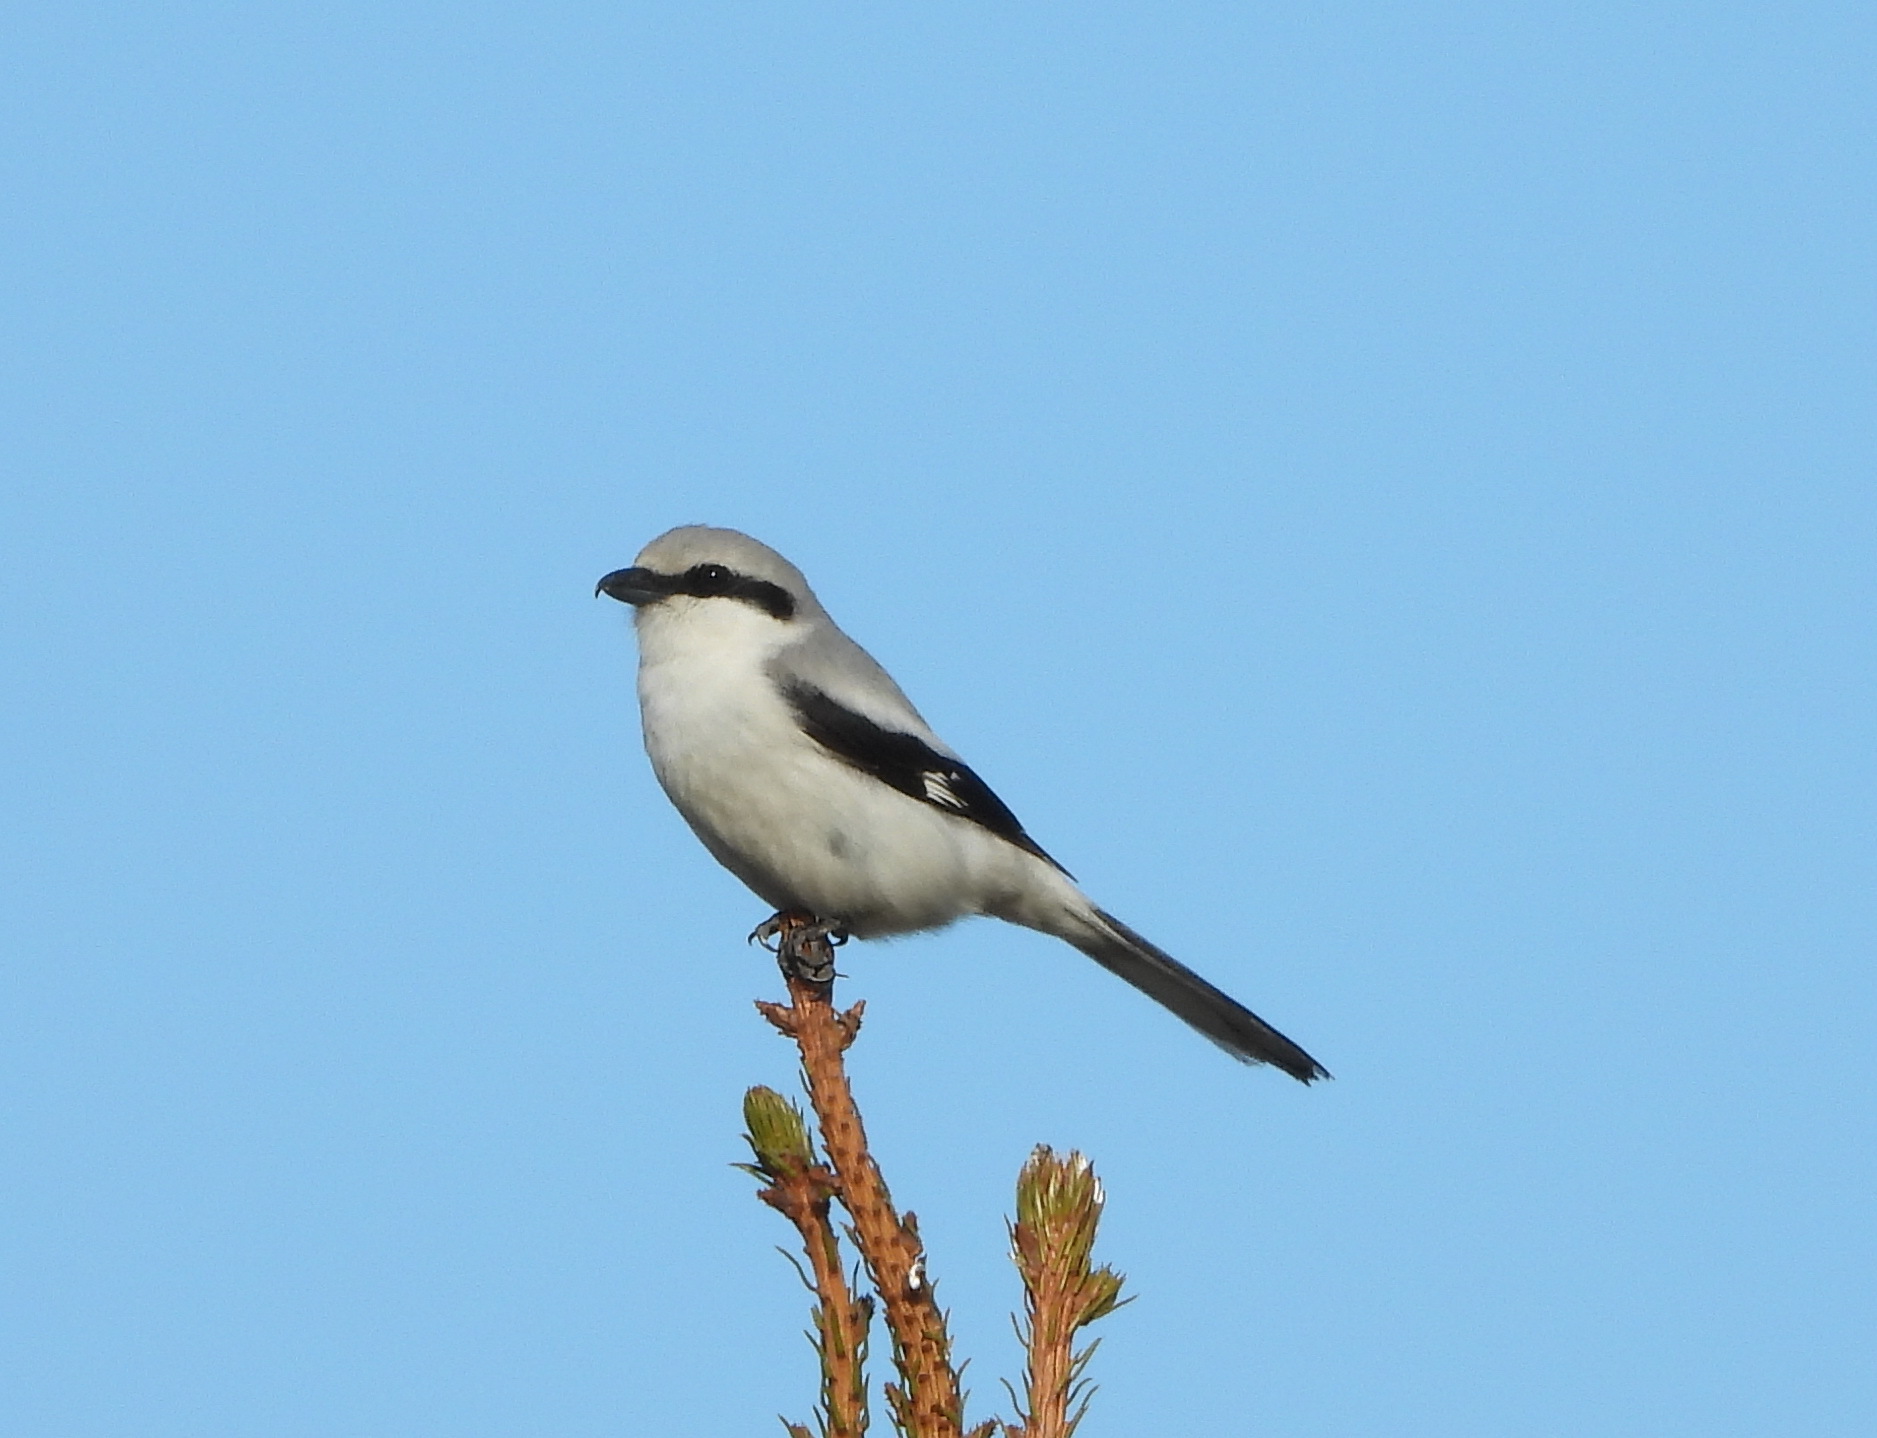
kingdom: Animalia
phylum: Chordata
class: Aves
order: Passeriformes
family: Laniidae
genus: Lanius
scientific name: Lanius excubitor
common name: Great grey shrike
